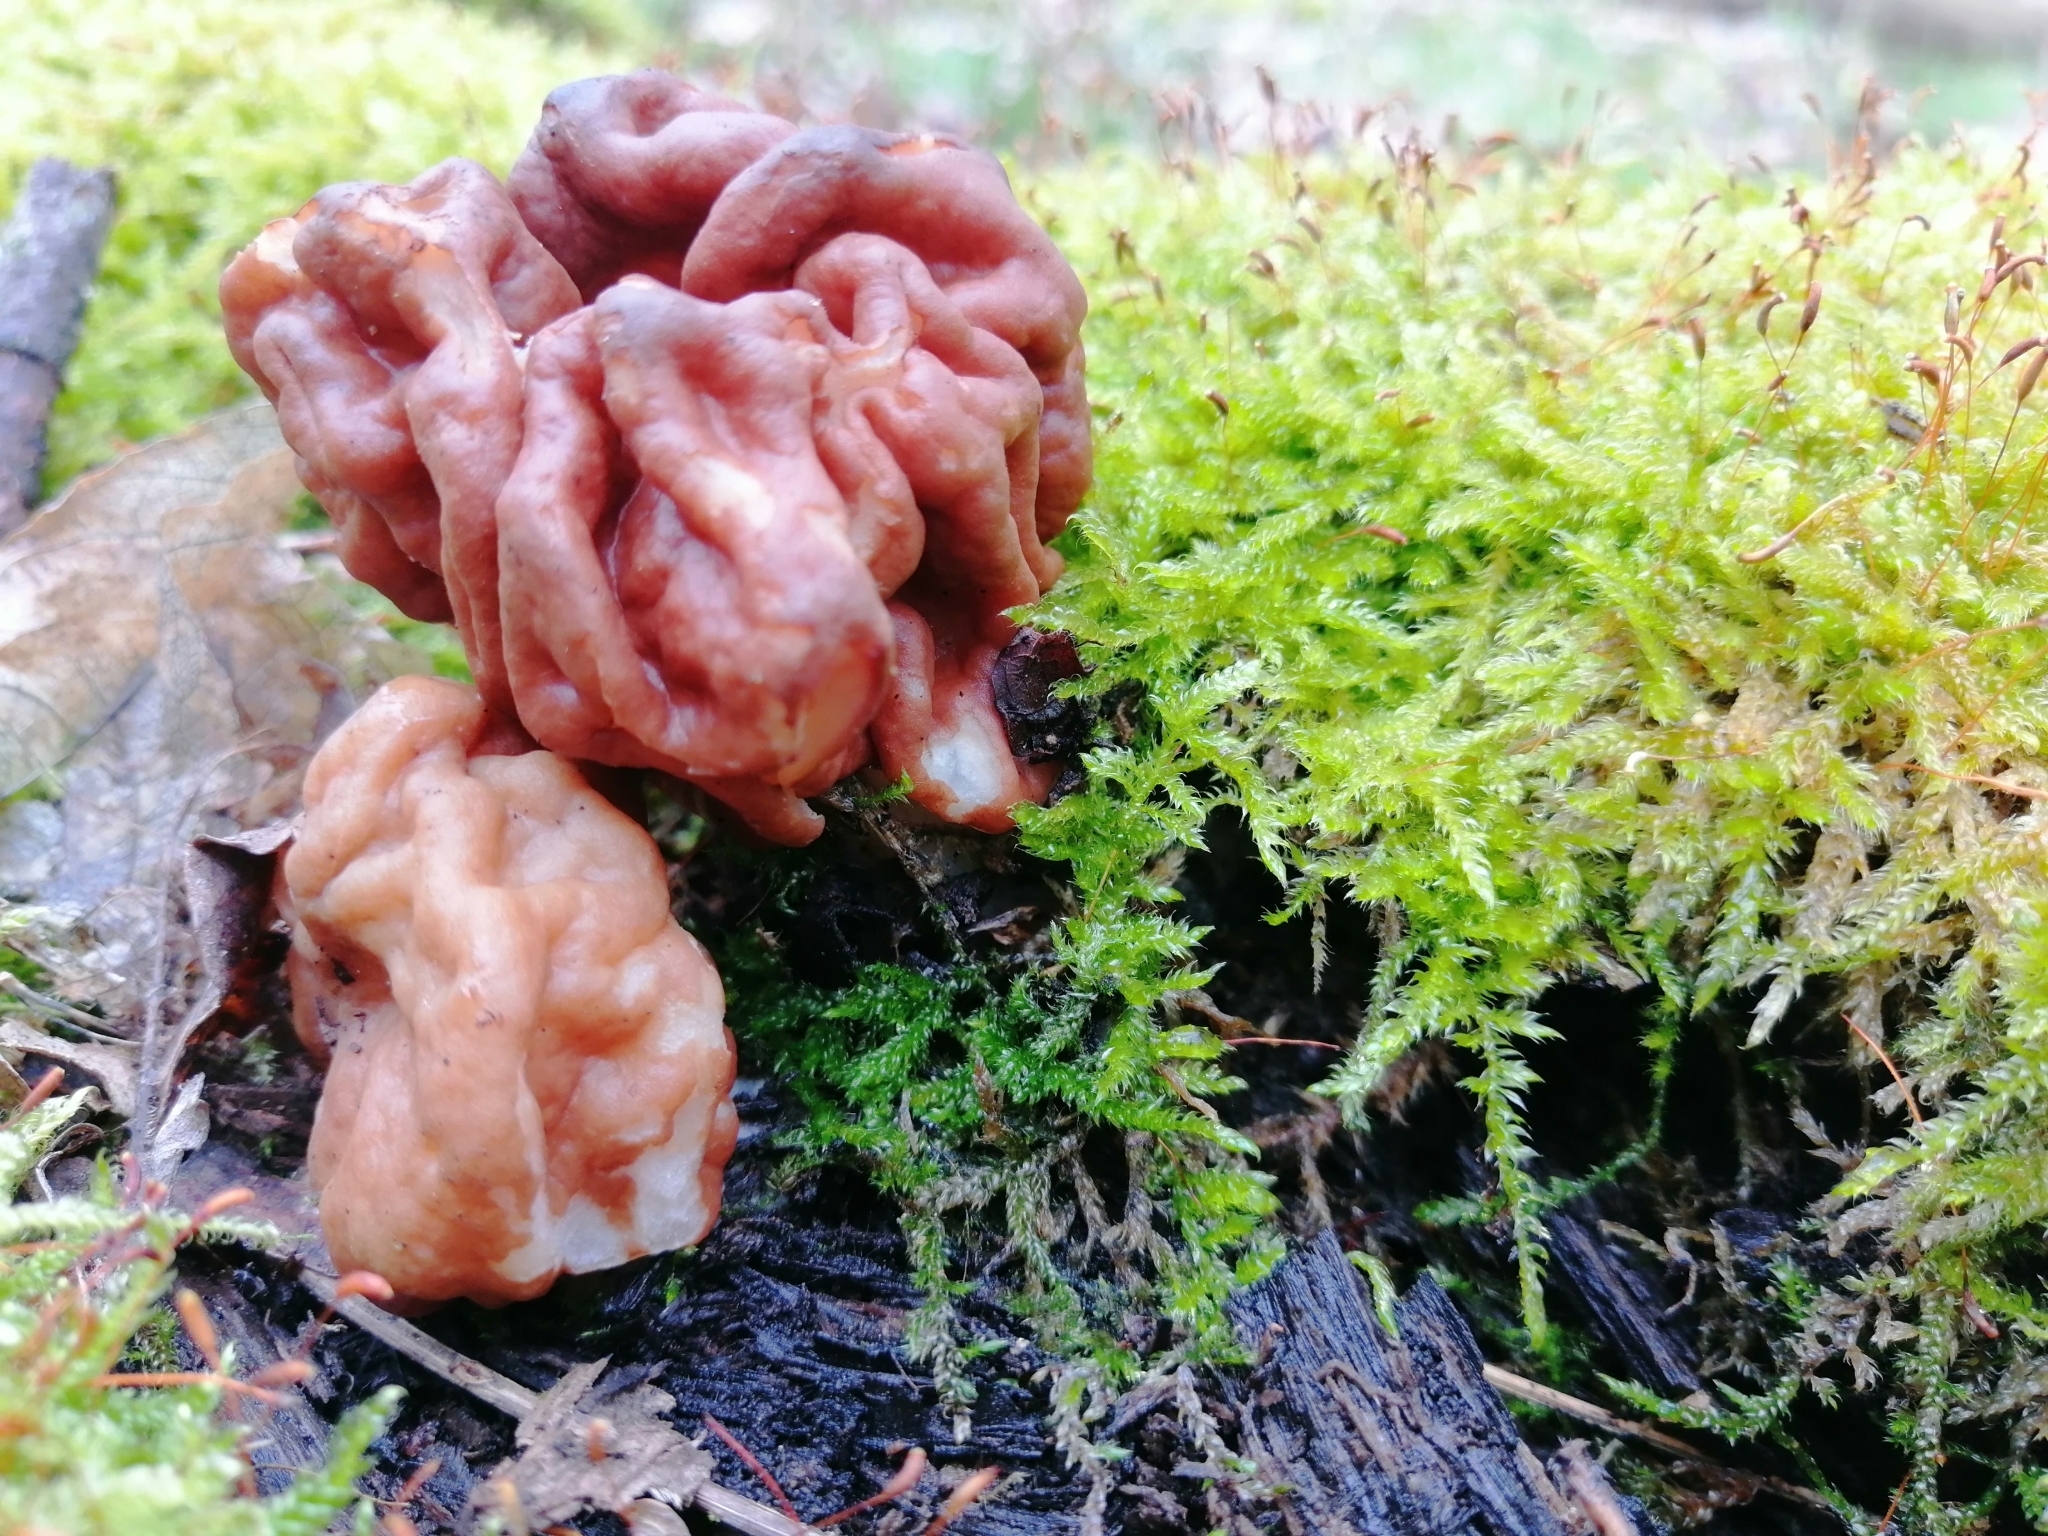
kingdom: Fungi
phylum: Ascomycota
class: Pezizomycetes
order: Pezizales
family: Discinaceae
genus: Discina
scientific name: Discina fastigiata
